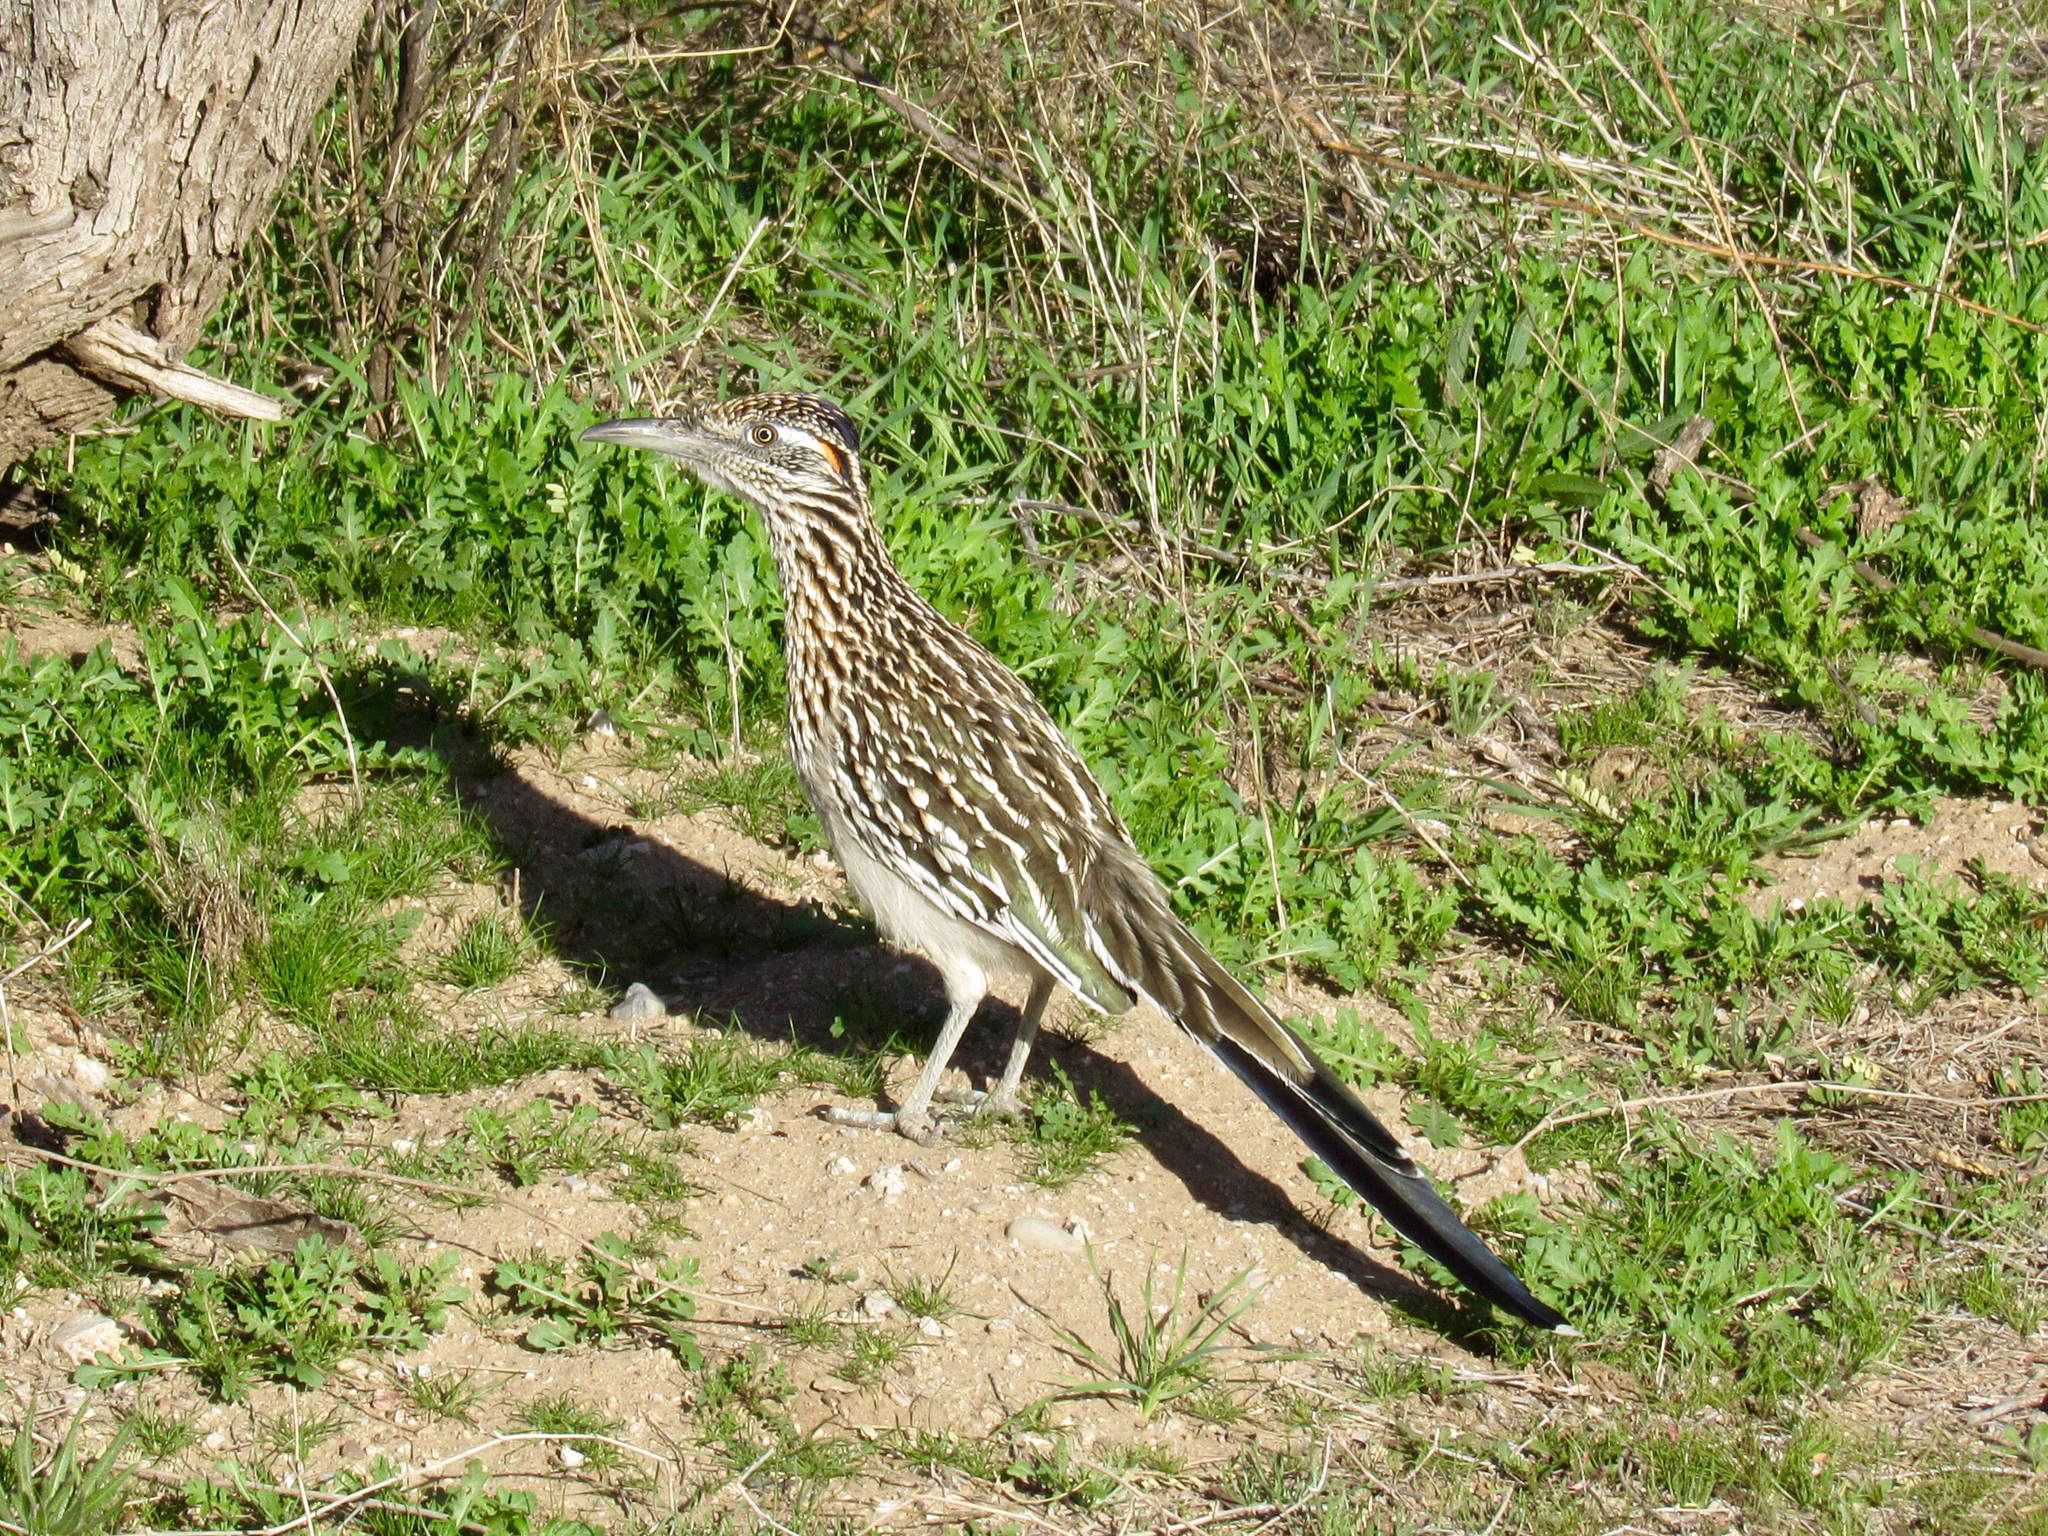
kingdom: Animalia
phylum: Chordata
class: Aves
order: Cuculiformes
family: Cuculidae
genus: Geococcyx
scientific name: Geococcyx californianus
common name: Greater roadrunner
